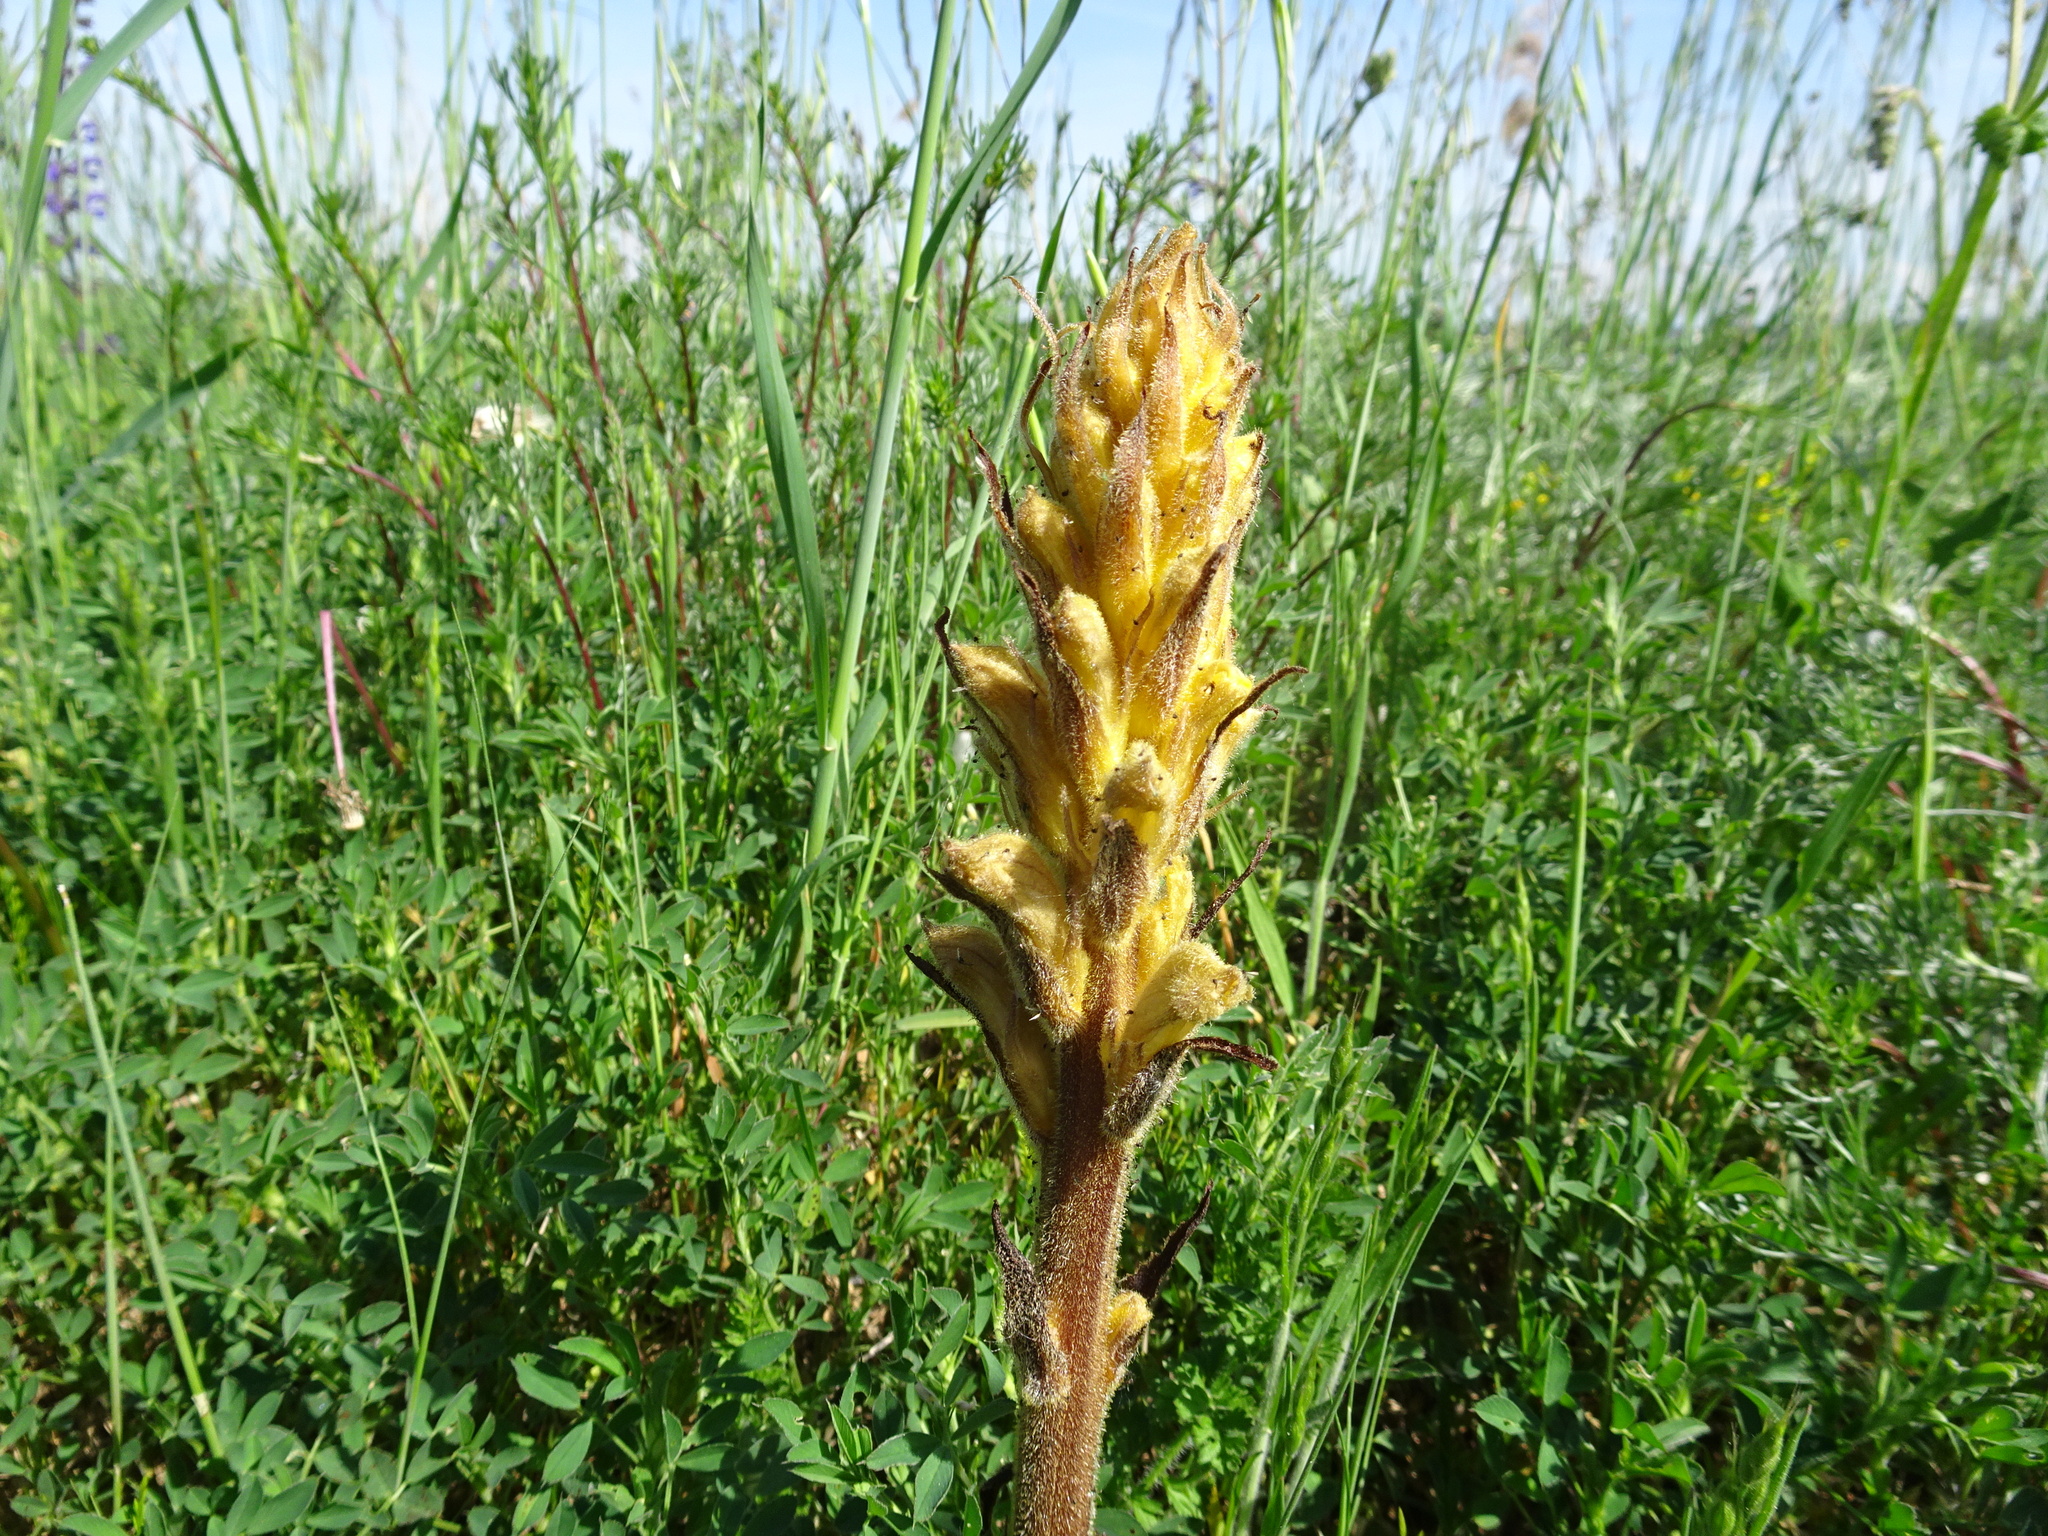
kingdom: Plantae
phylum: Tracheophyta
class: Magnoliopsida
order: Lamiales
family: Orobanchaceae
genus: Orobanche
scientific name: Orobanche lutea
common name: Yellow broomrape
